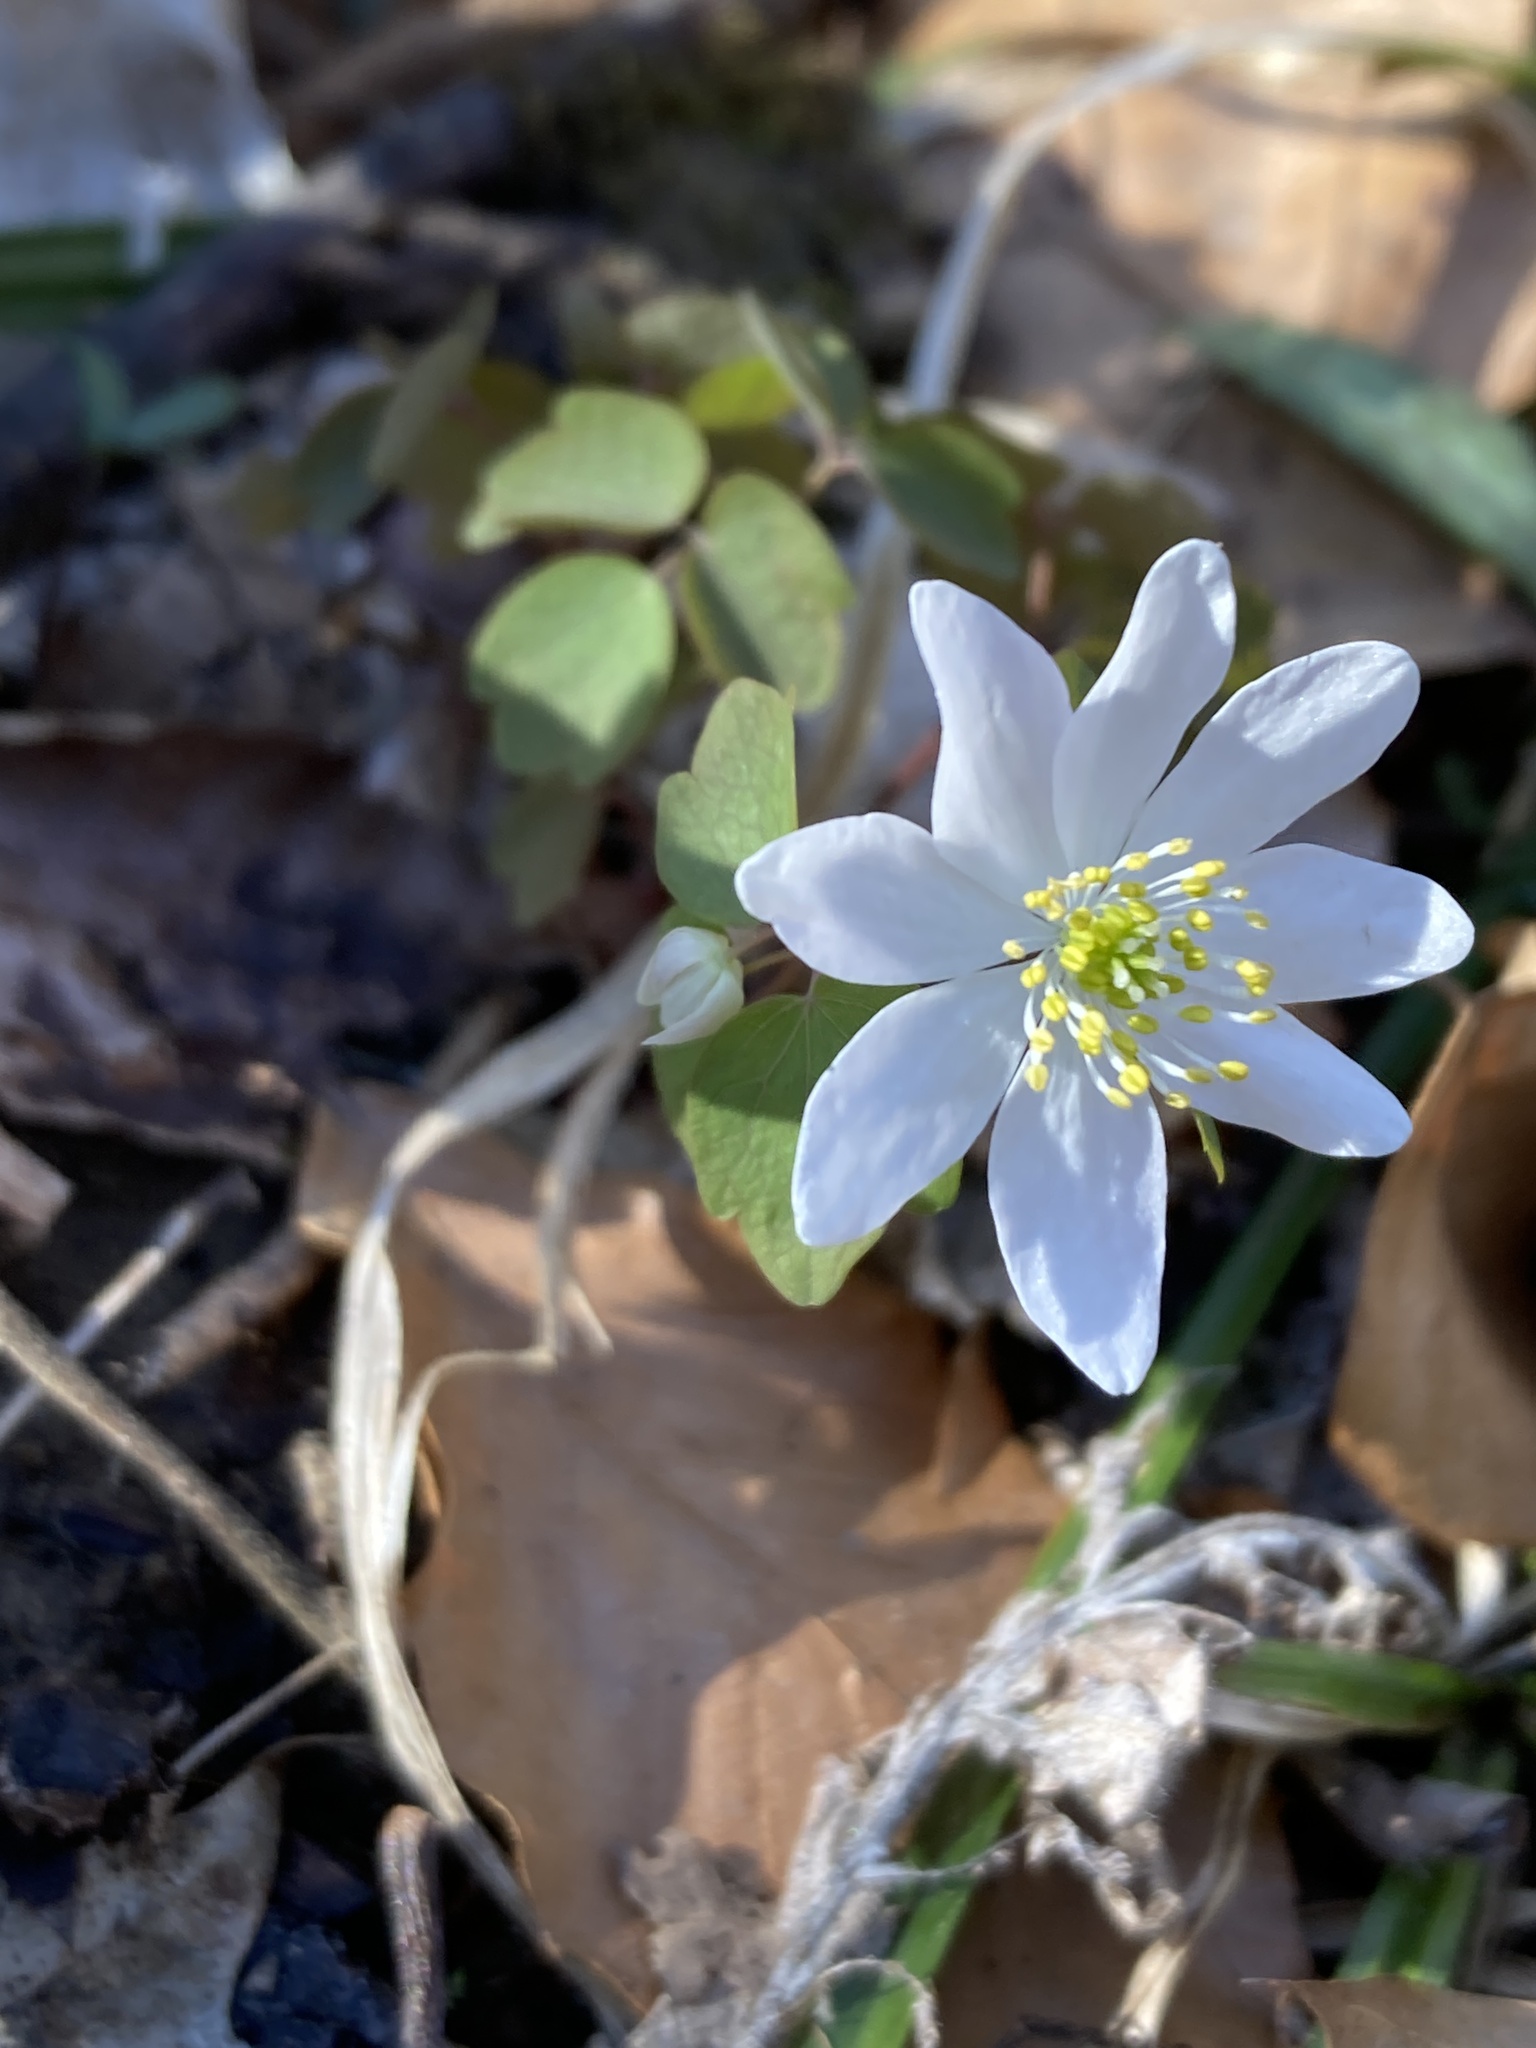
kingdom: Plantae
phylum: Tracheophyta
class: Magnoliopsida
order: Ranunculales
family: Ranunculaceae
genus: Thalictrum
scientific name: Thalictrum thalictroides
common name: Rue-anemone
